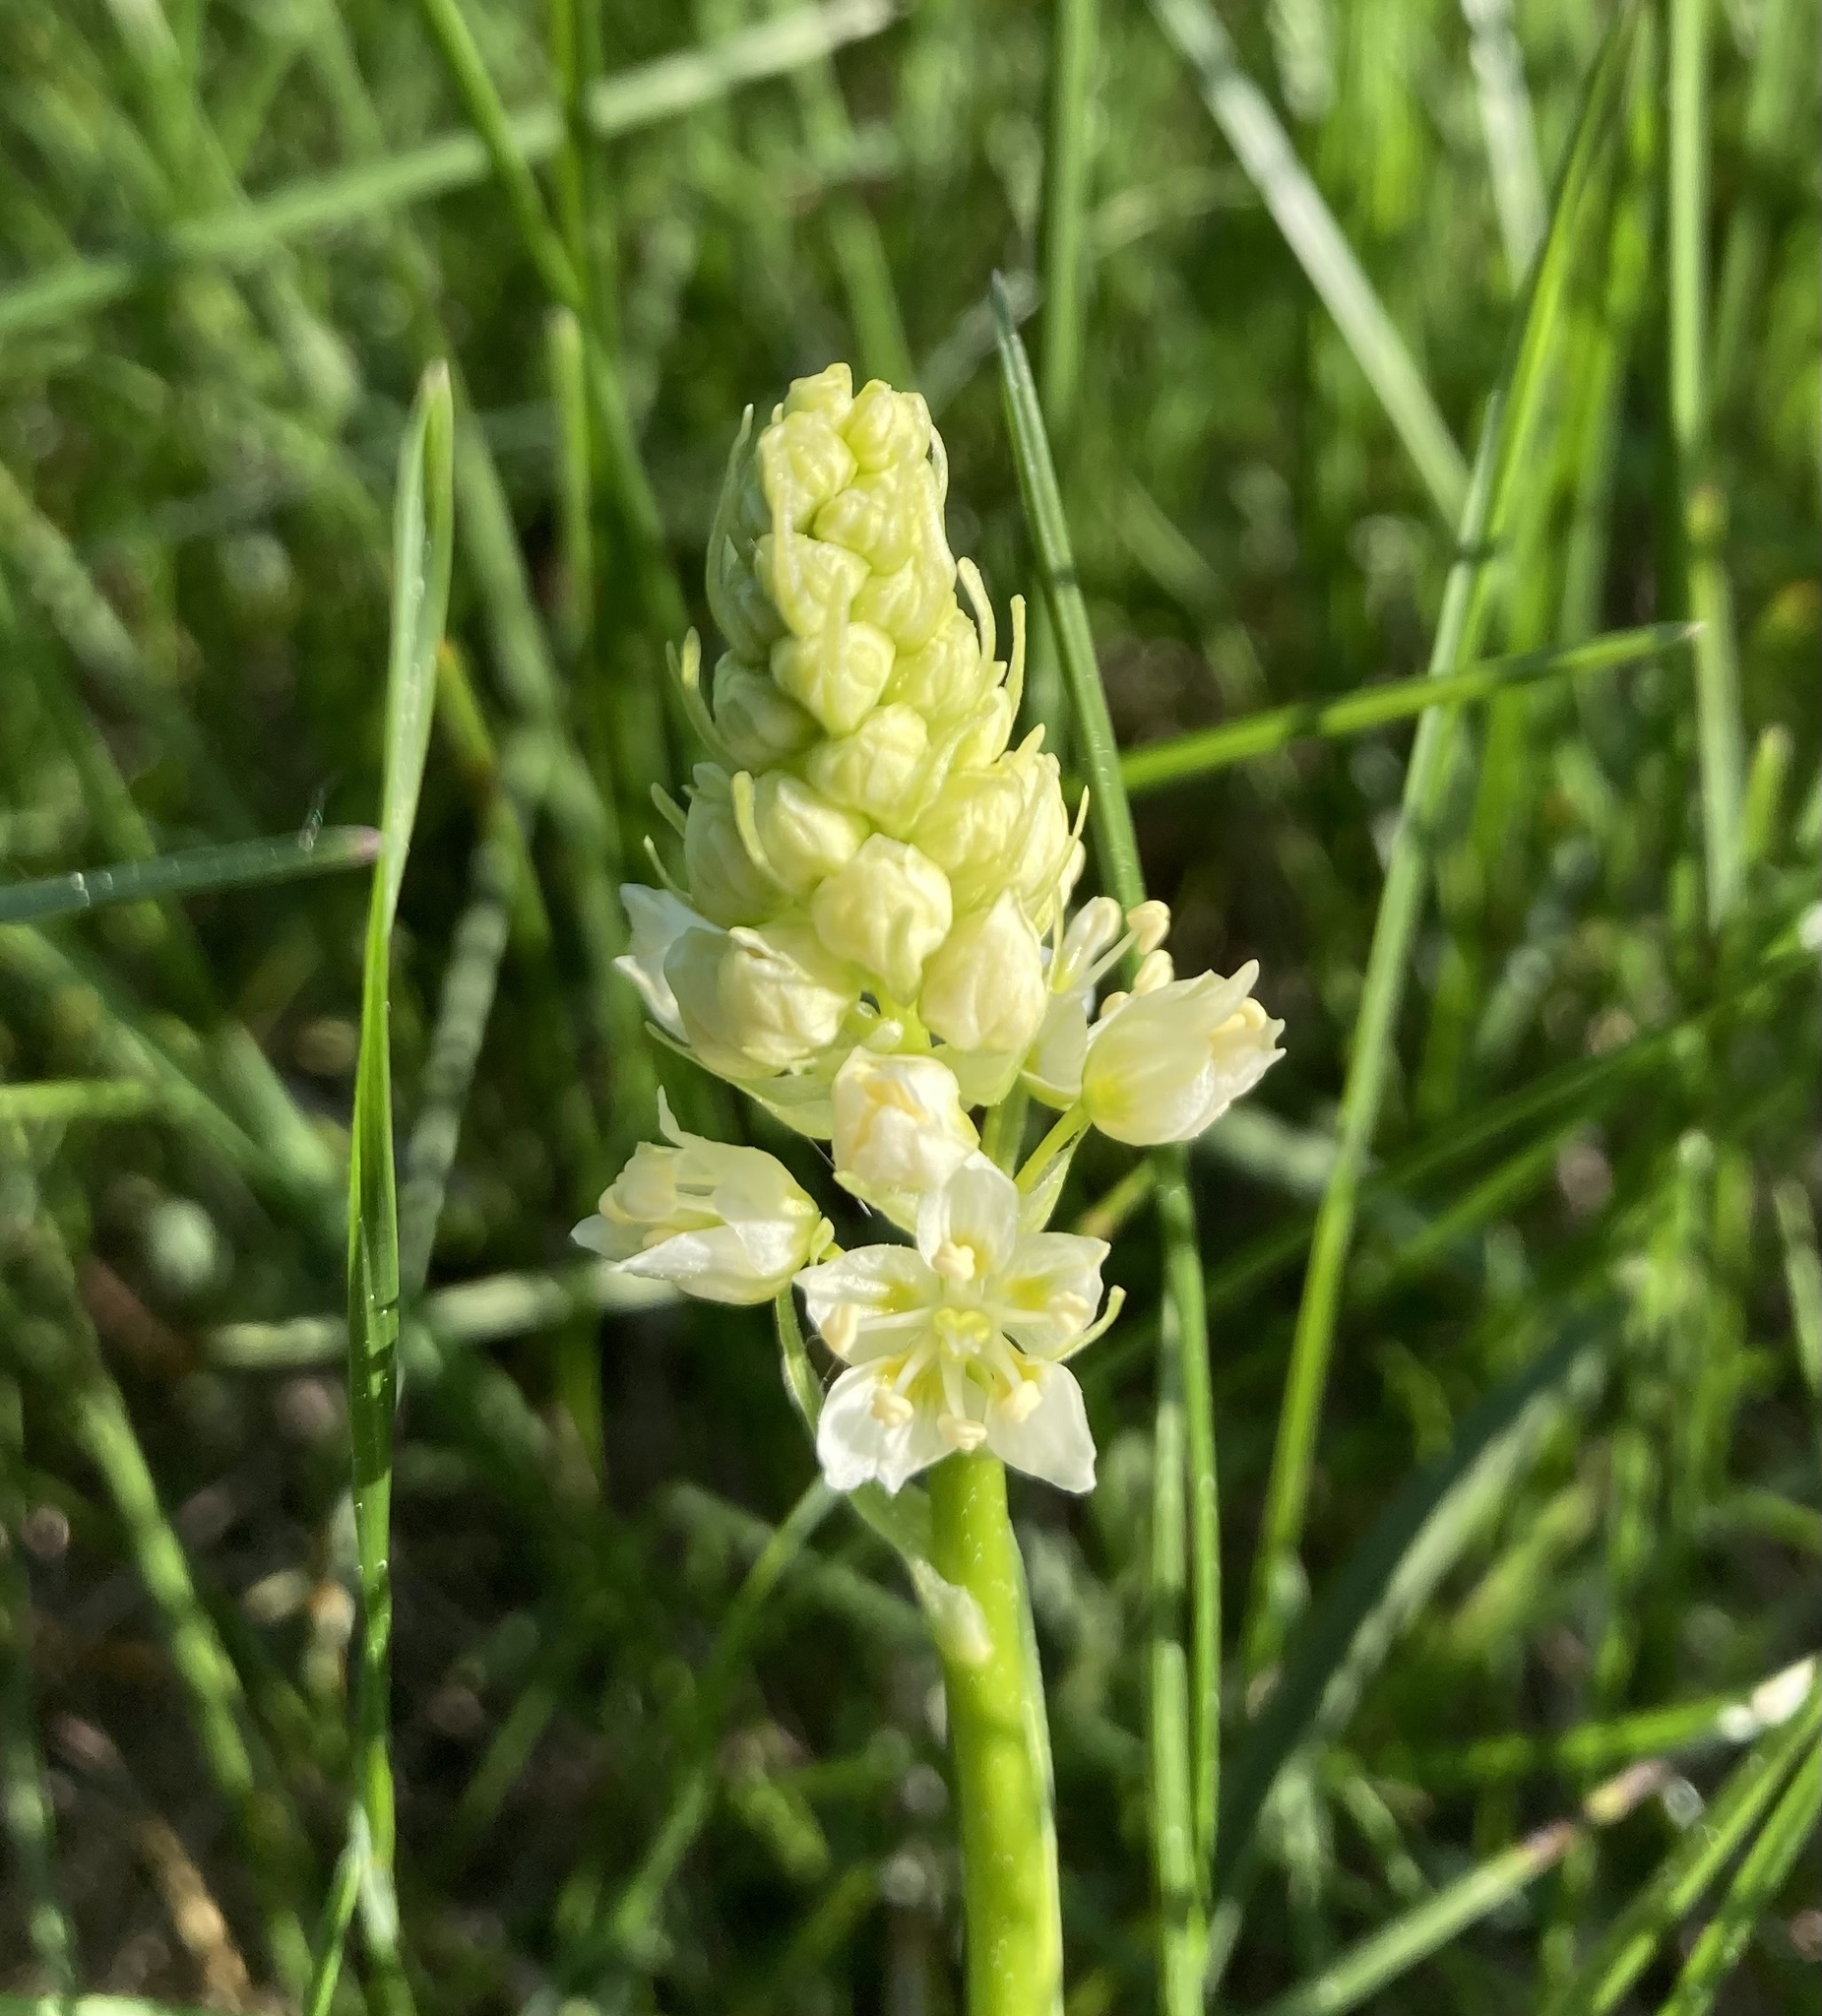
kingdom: Plantae
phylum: Tracheophyta
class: Liliopsida
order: Liliales
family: Melanthiaceae
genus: Toxicoscordion
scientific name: Toxicoscordion venenosum
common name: Meadow death camas
